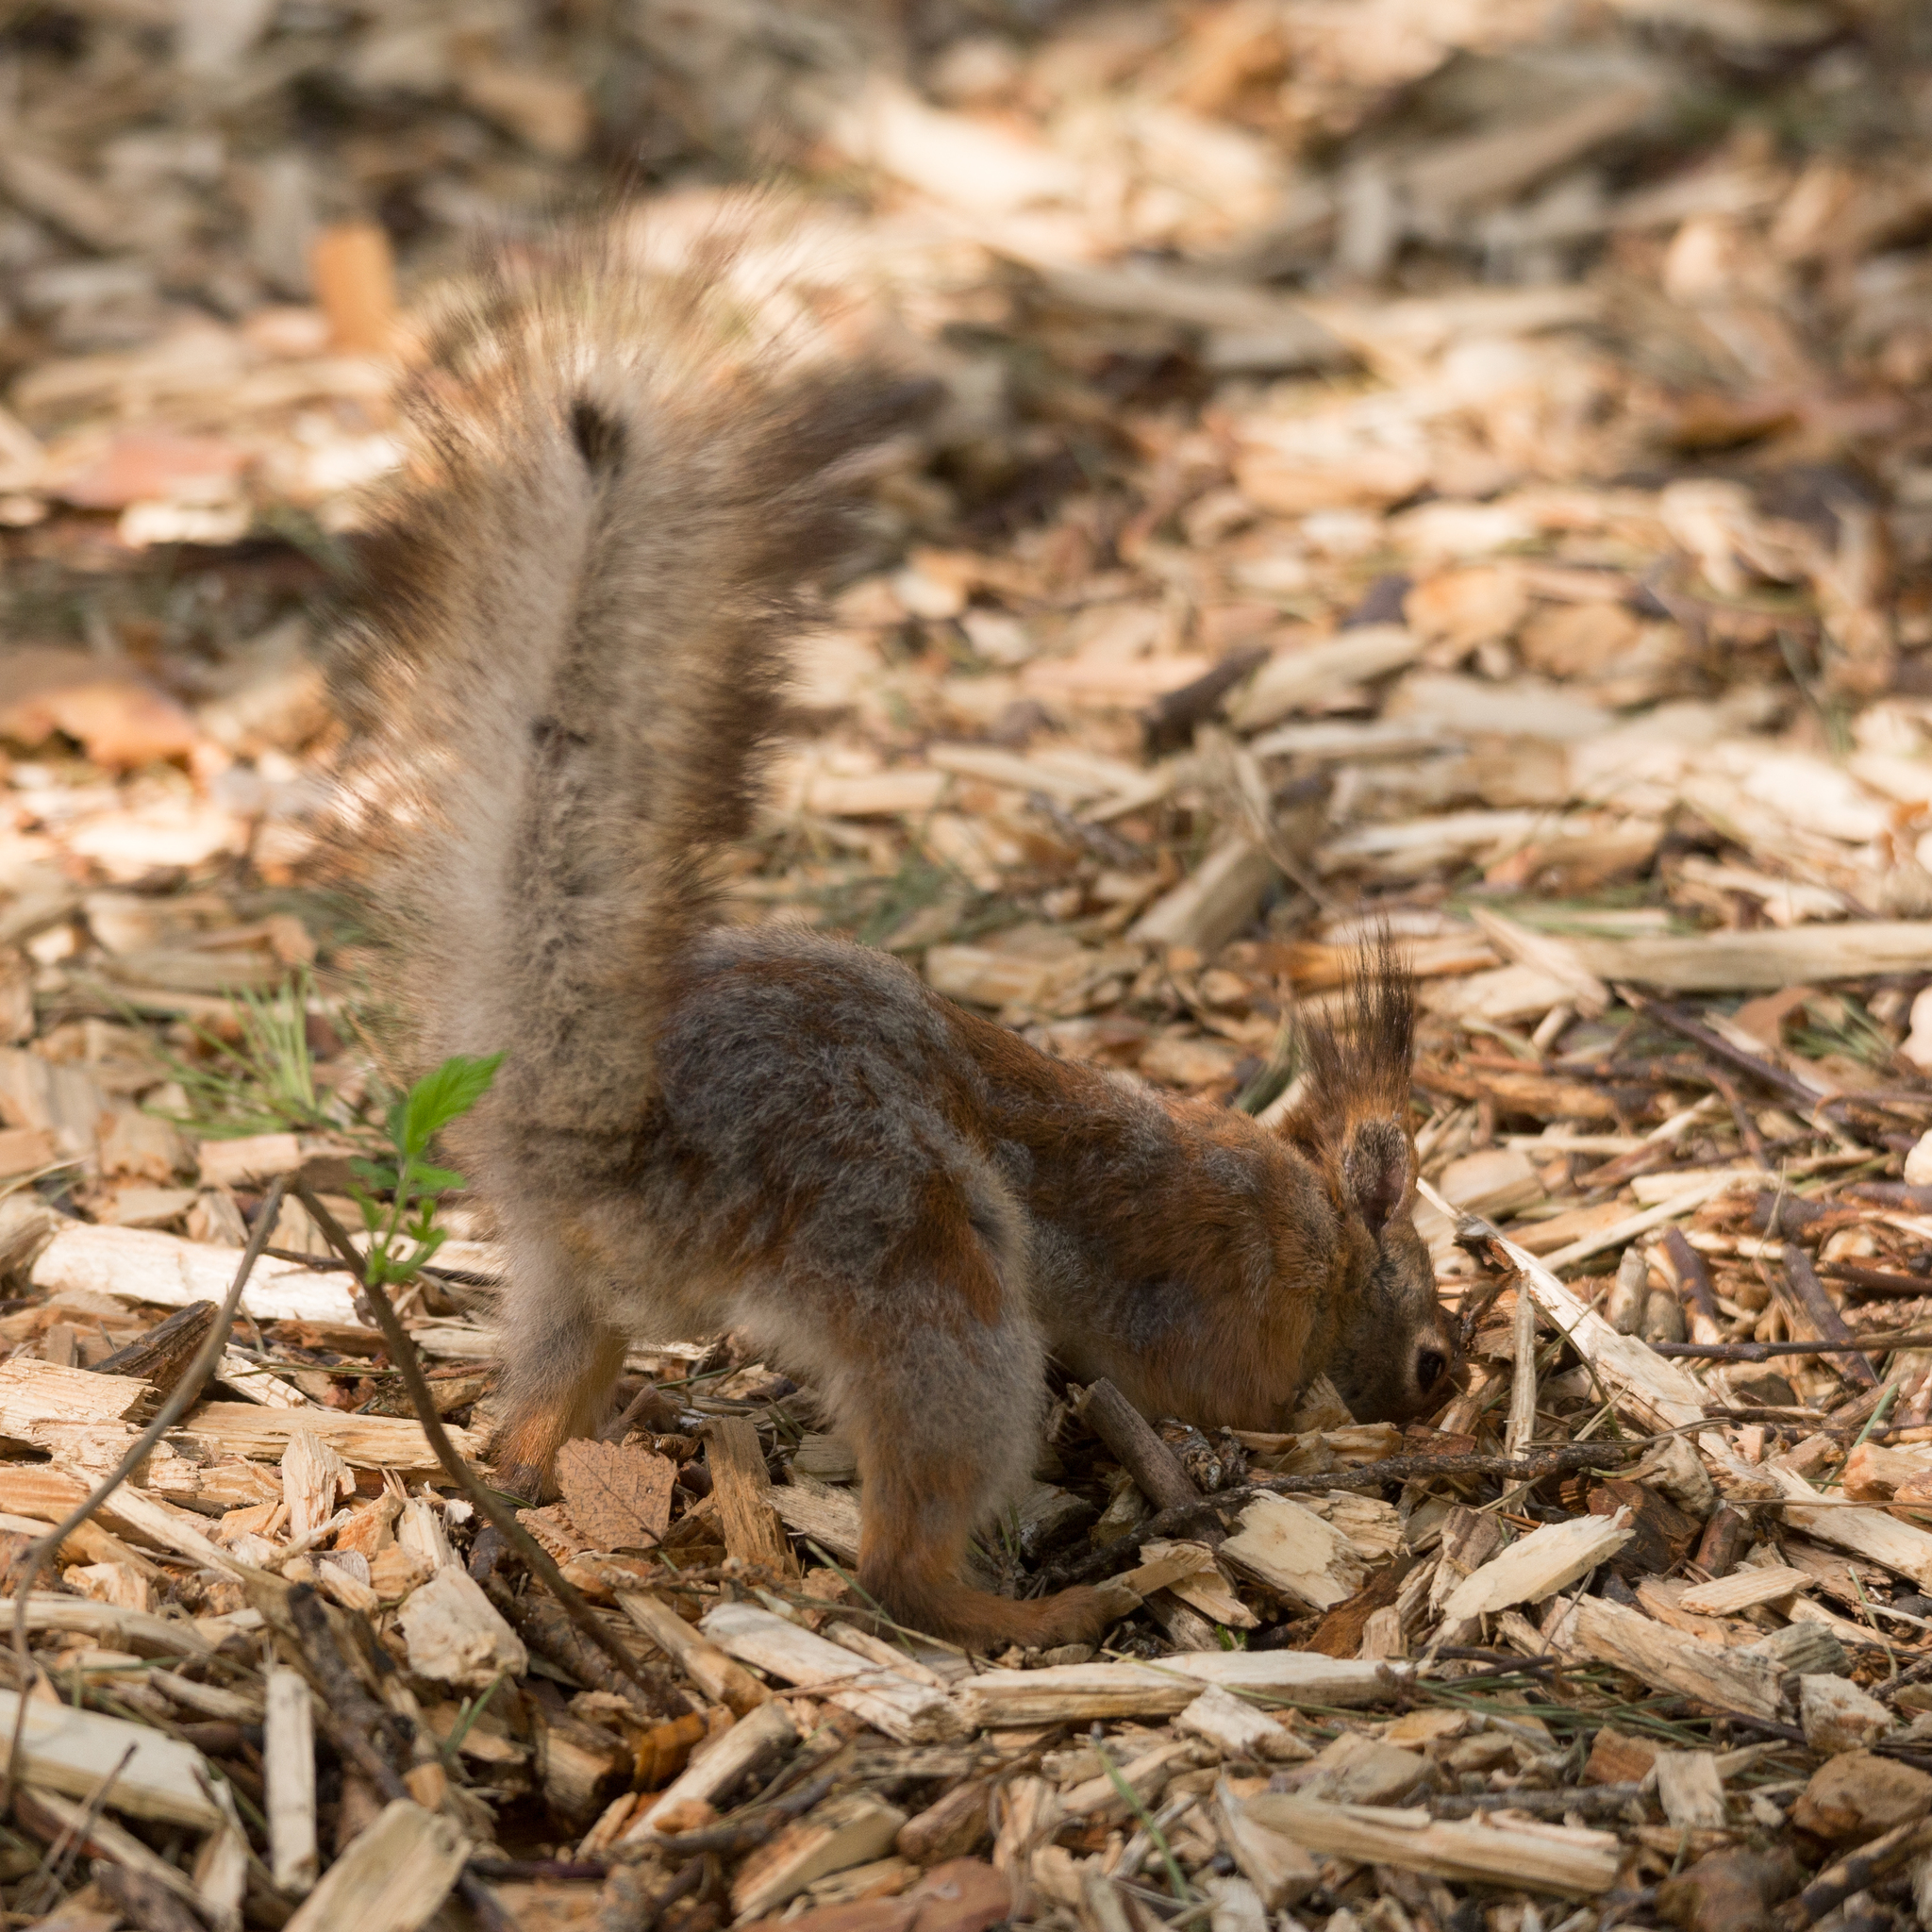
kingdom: Animalia
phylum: Chordata
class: Mammalia
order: Rodentia
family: Sciuridae
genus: Sciurus
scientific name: Sciurus vulgaris
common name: Eurasian red squirrel
